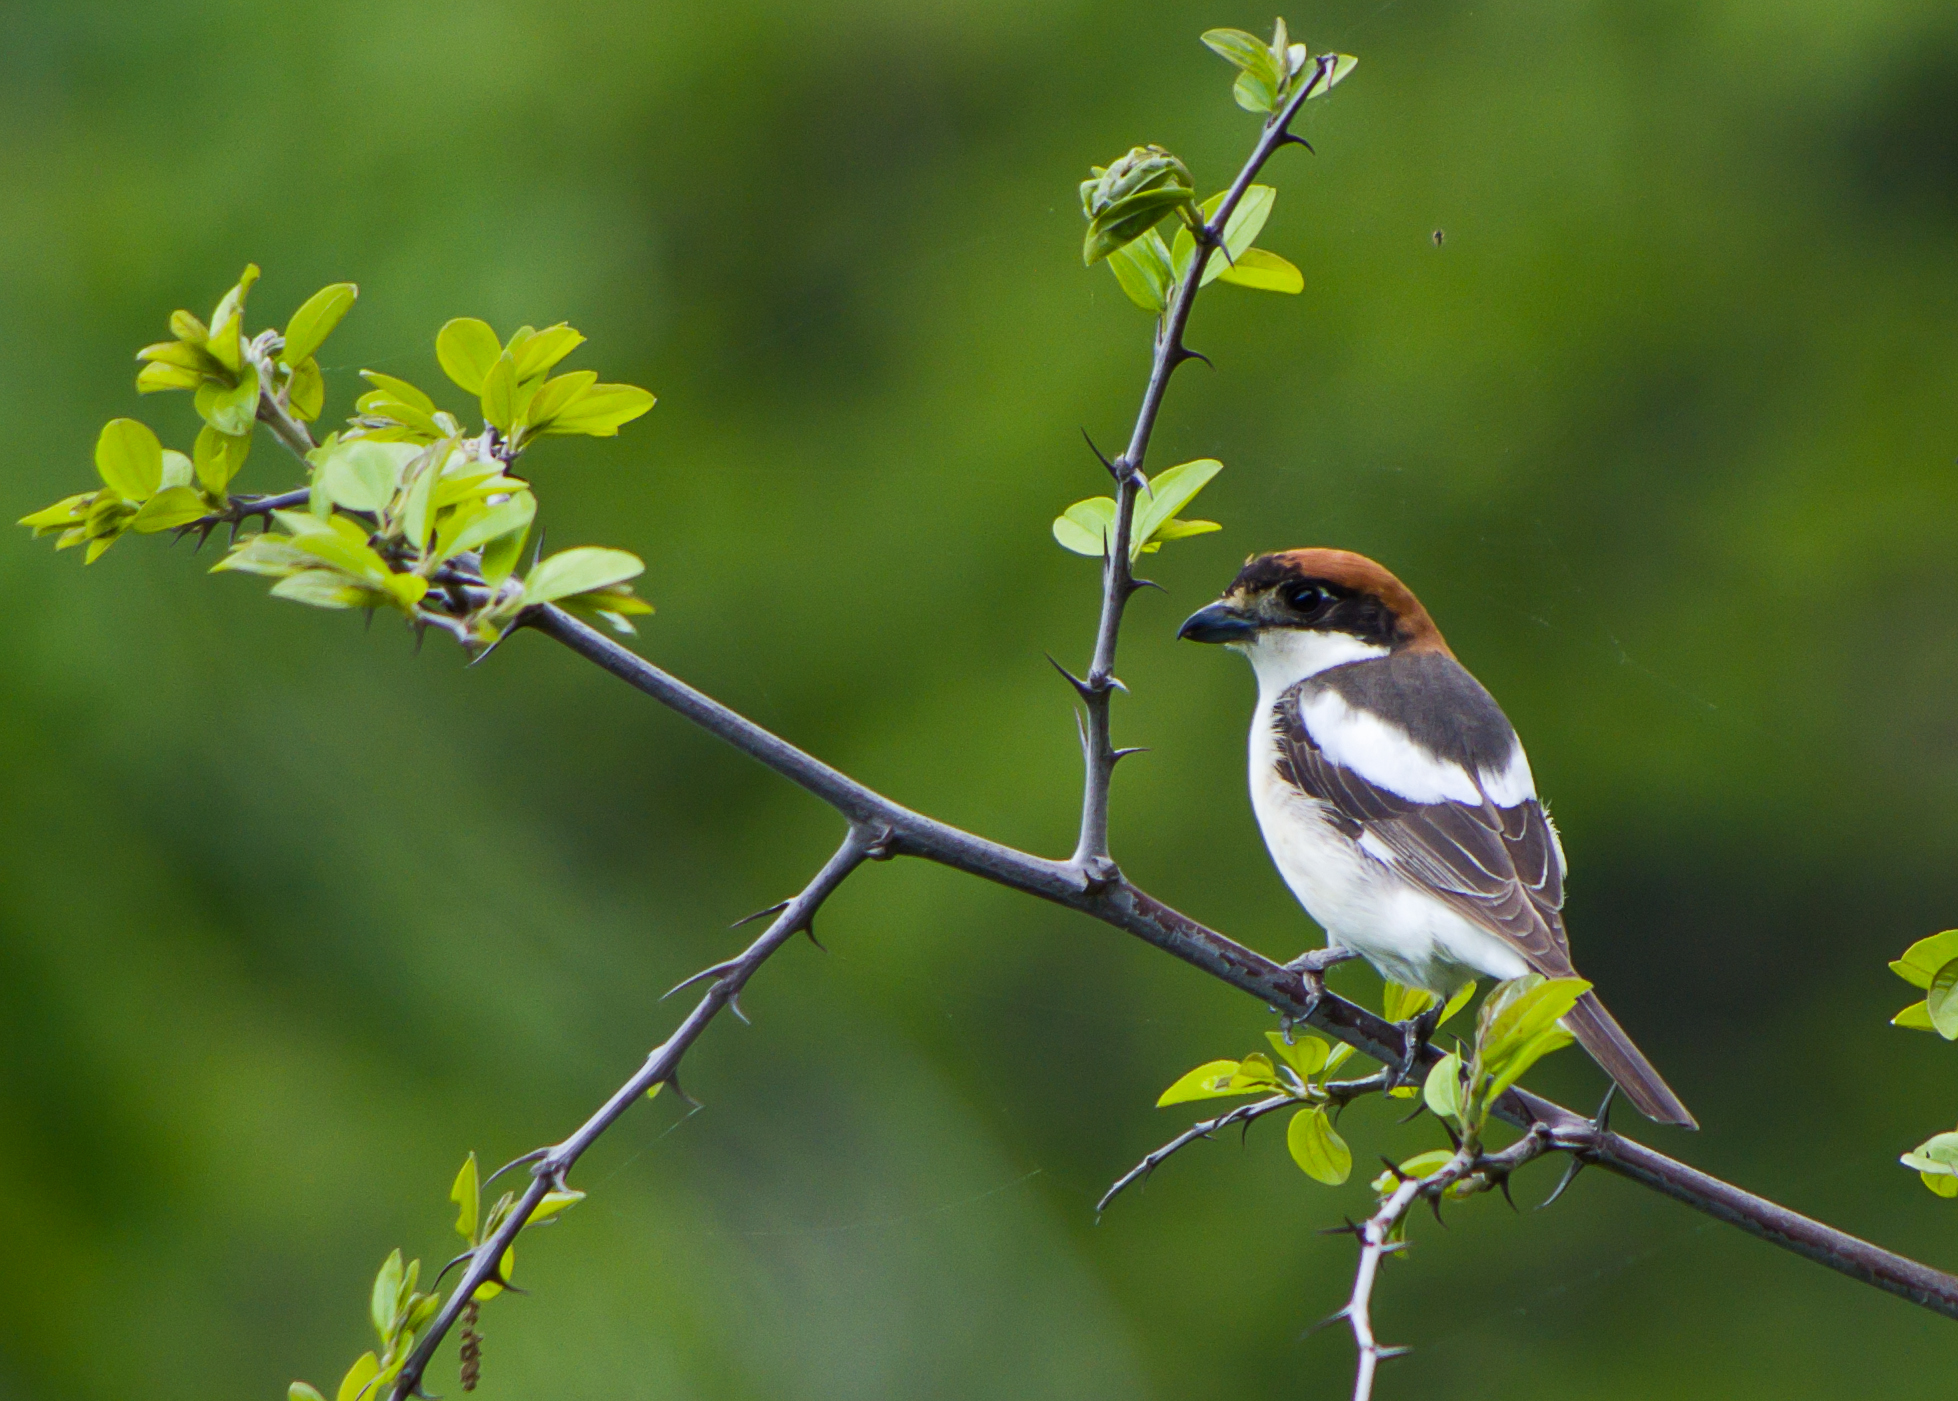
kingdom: Animalia
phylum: Chordata
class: Aves
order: Passeriformes
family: Laniidae
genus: Lanius
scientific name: Lanius senator
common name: Woodchat shrike
